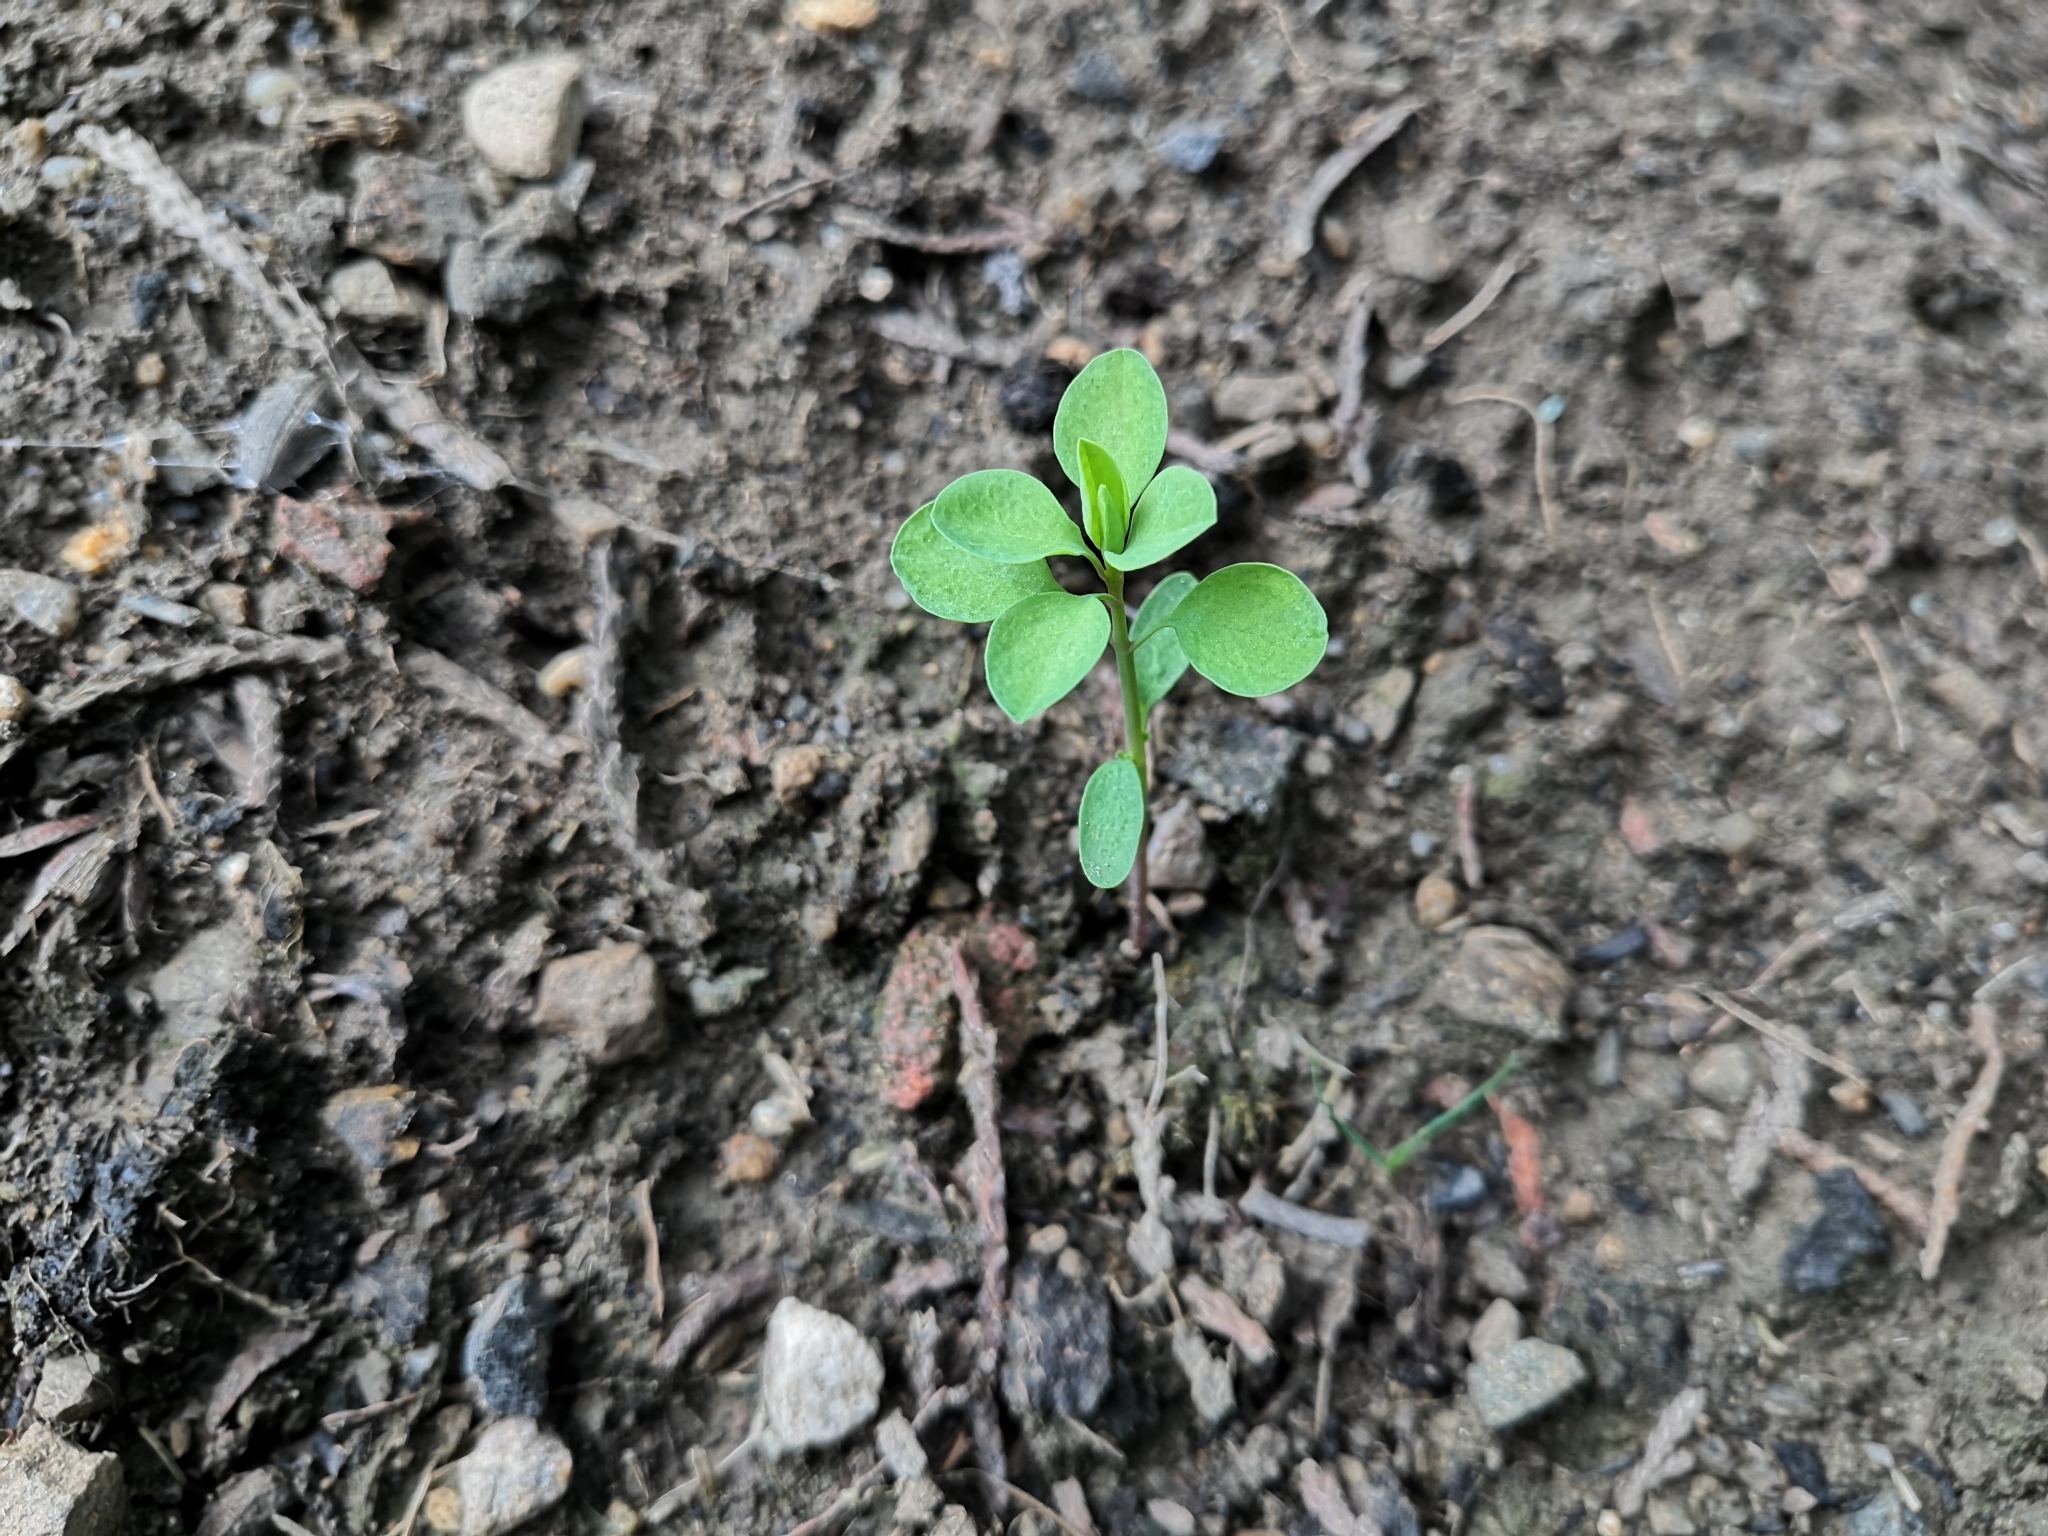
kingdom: Plantae
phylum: Tracheophyta
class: Magnoliopsida
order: Malpighiales
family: Euphorbiaceae
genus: Euphorbia
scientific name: Euphorbia peplus
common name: Petty spurge
